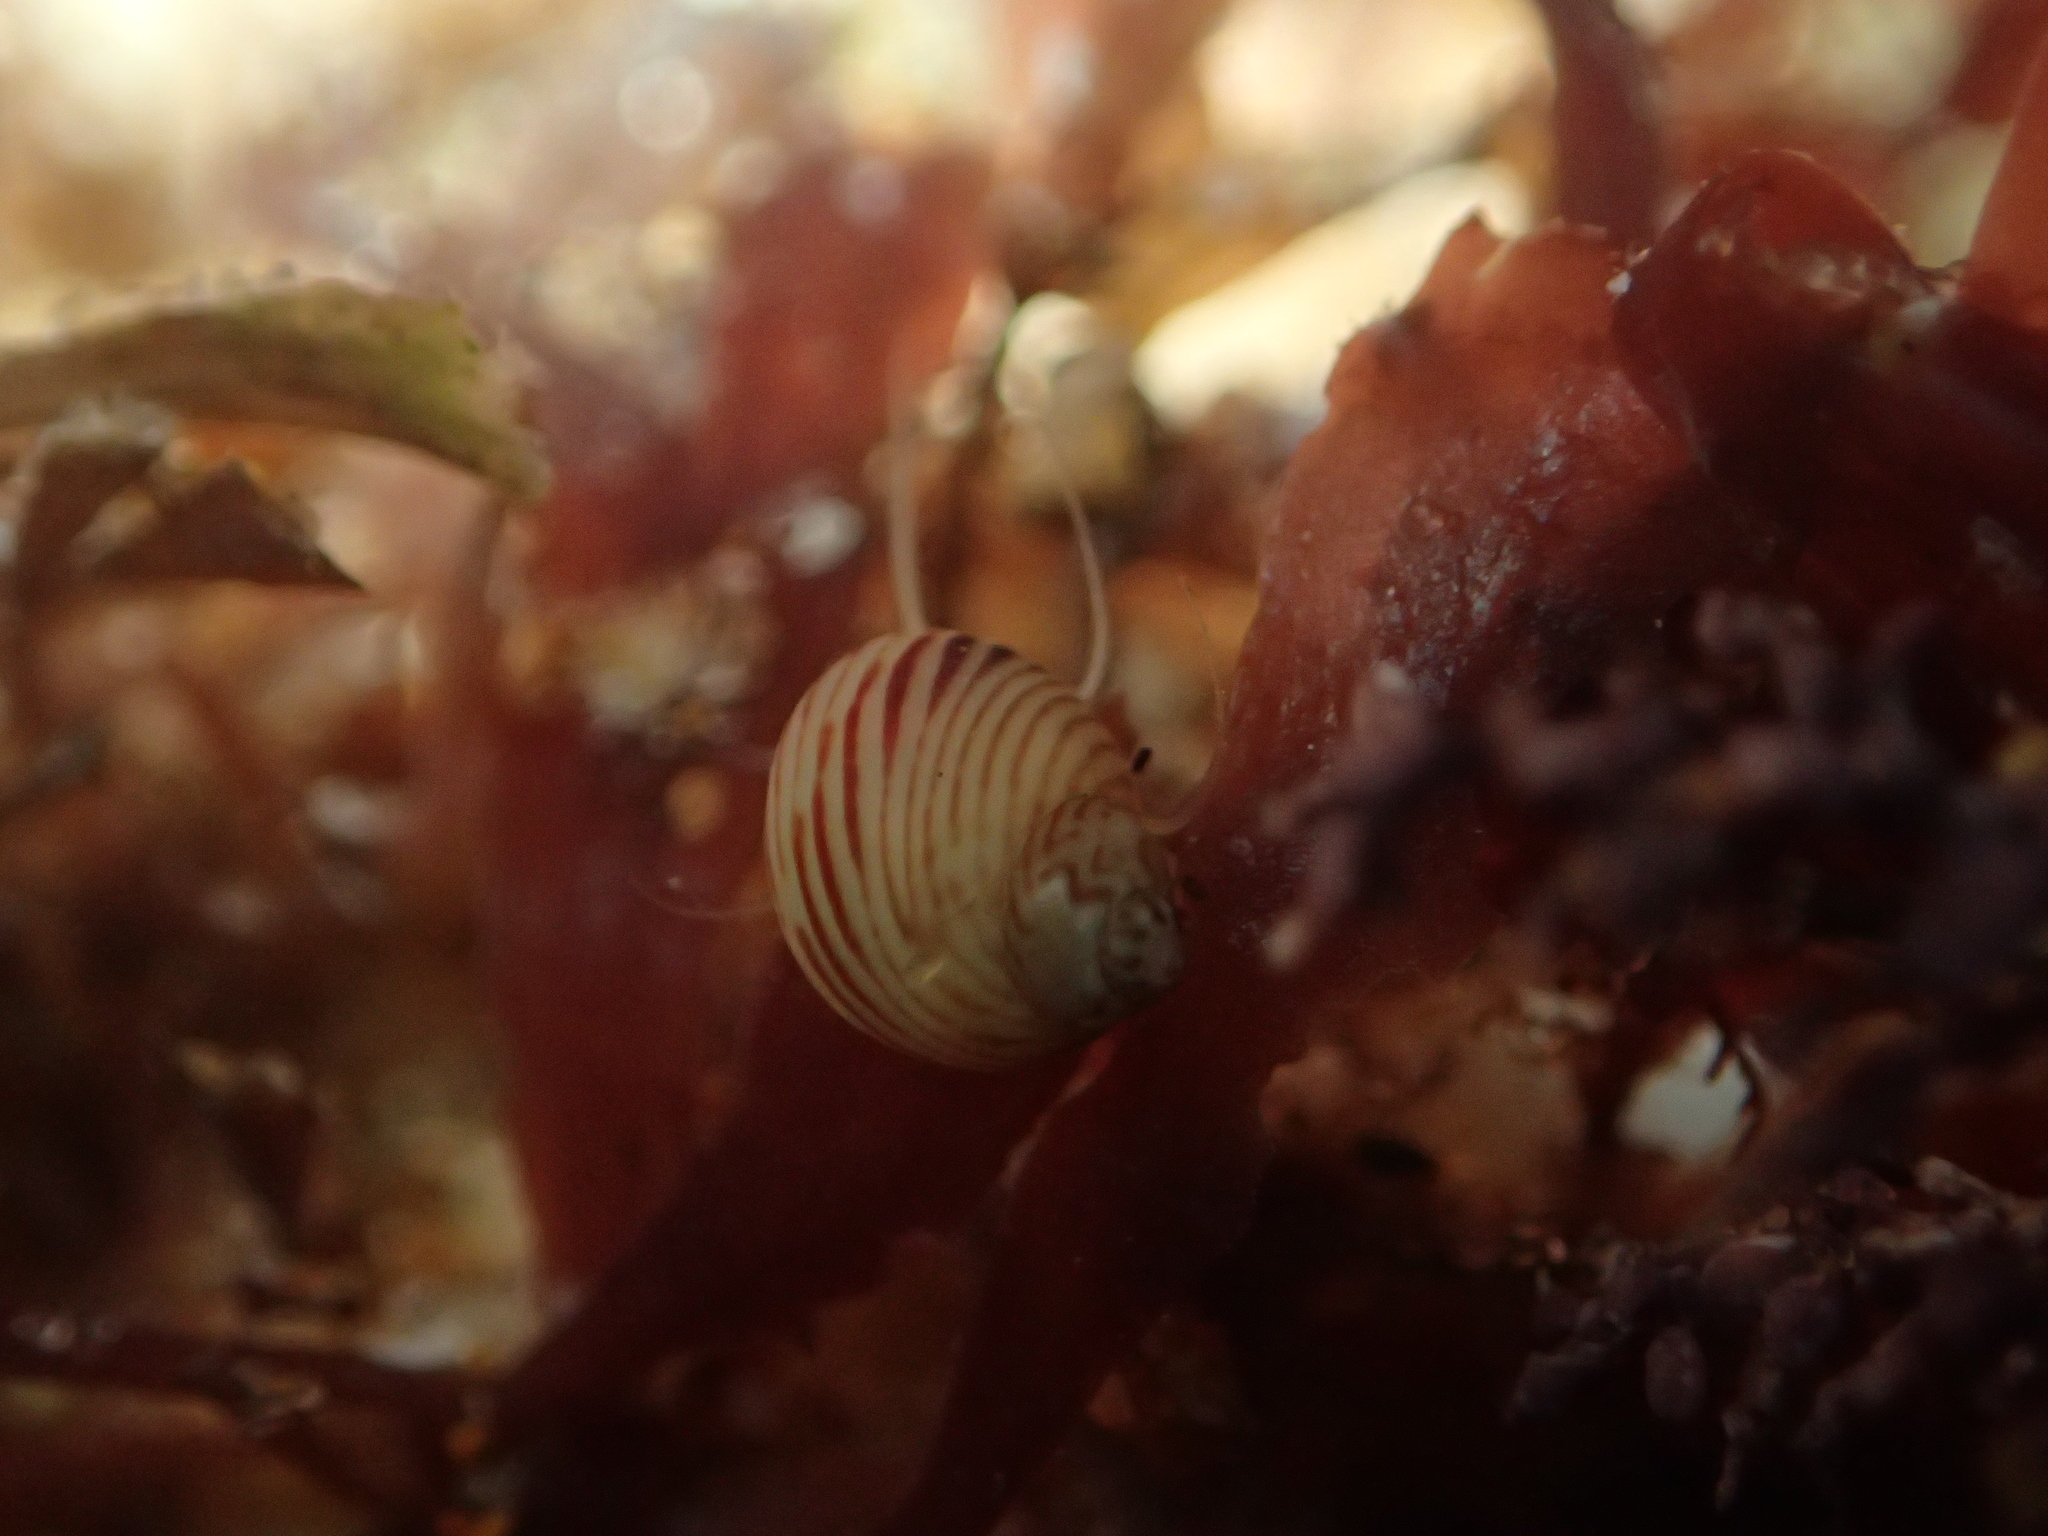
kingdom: Animalia
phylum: Mollusca
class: Gastropoda
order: Trochida
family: Phasianellidae
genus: Tricolia
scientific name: Tricolia pullus
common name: Pheasant shell
